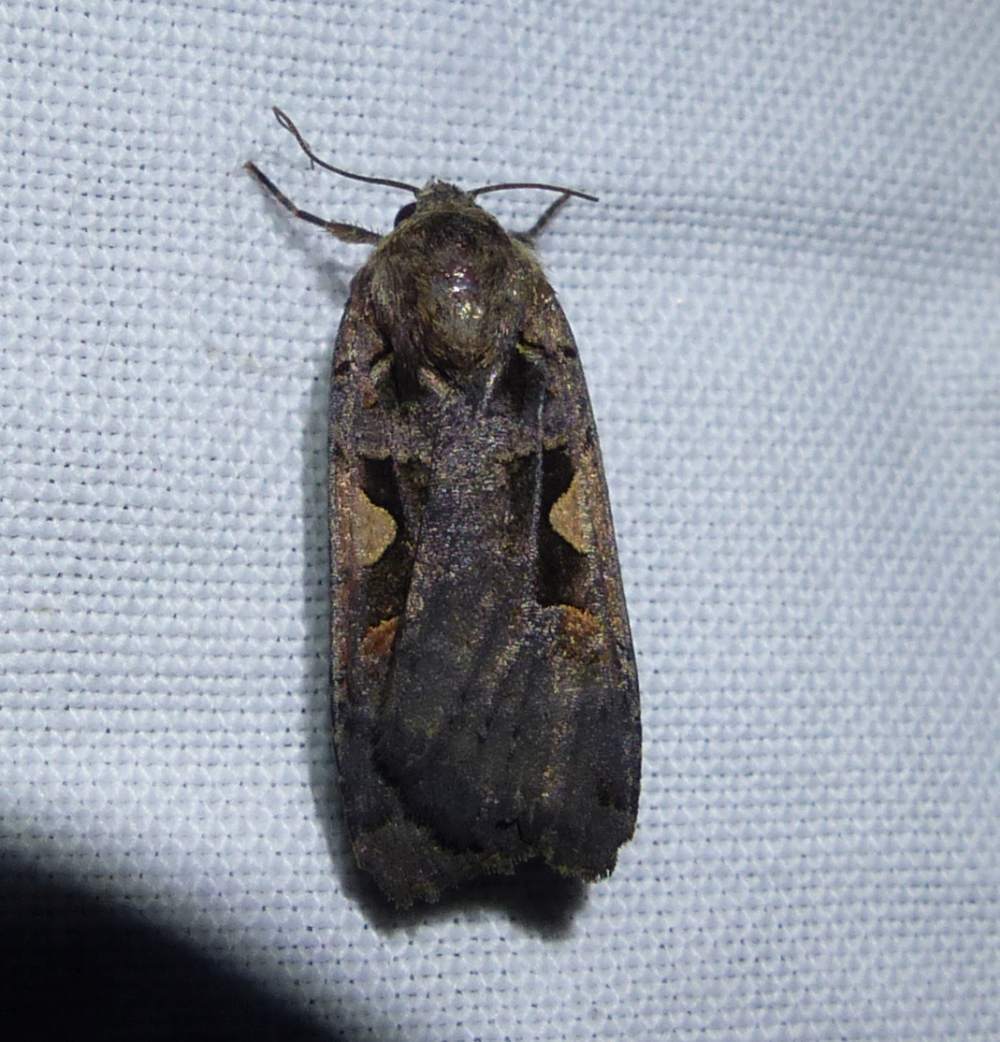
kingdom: Animalia
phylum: Arthropoda
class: Insecta
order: Lepidoptera
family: Noctuidae
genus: Xestia
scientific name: Xestia
